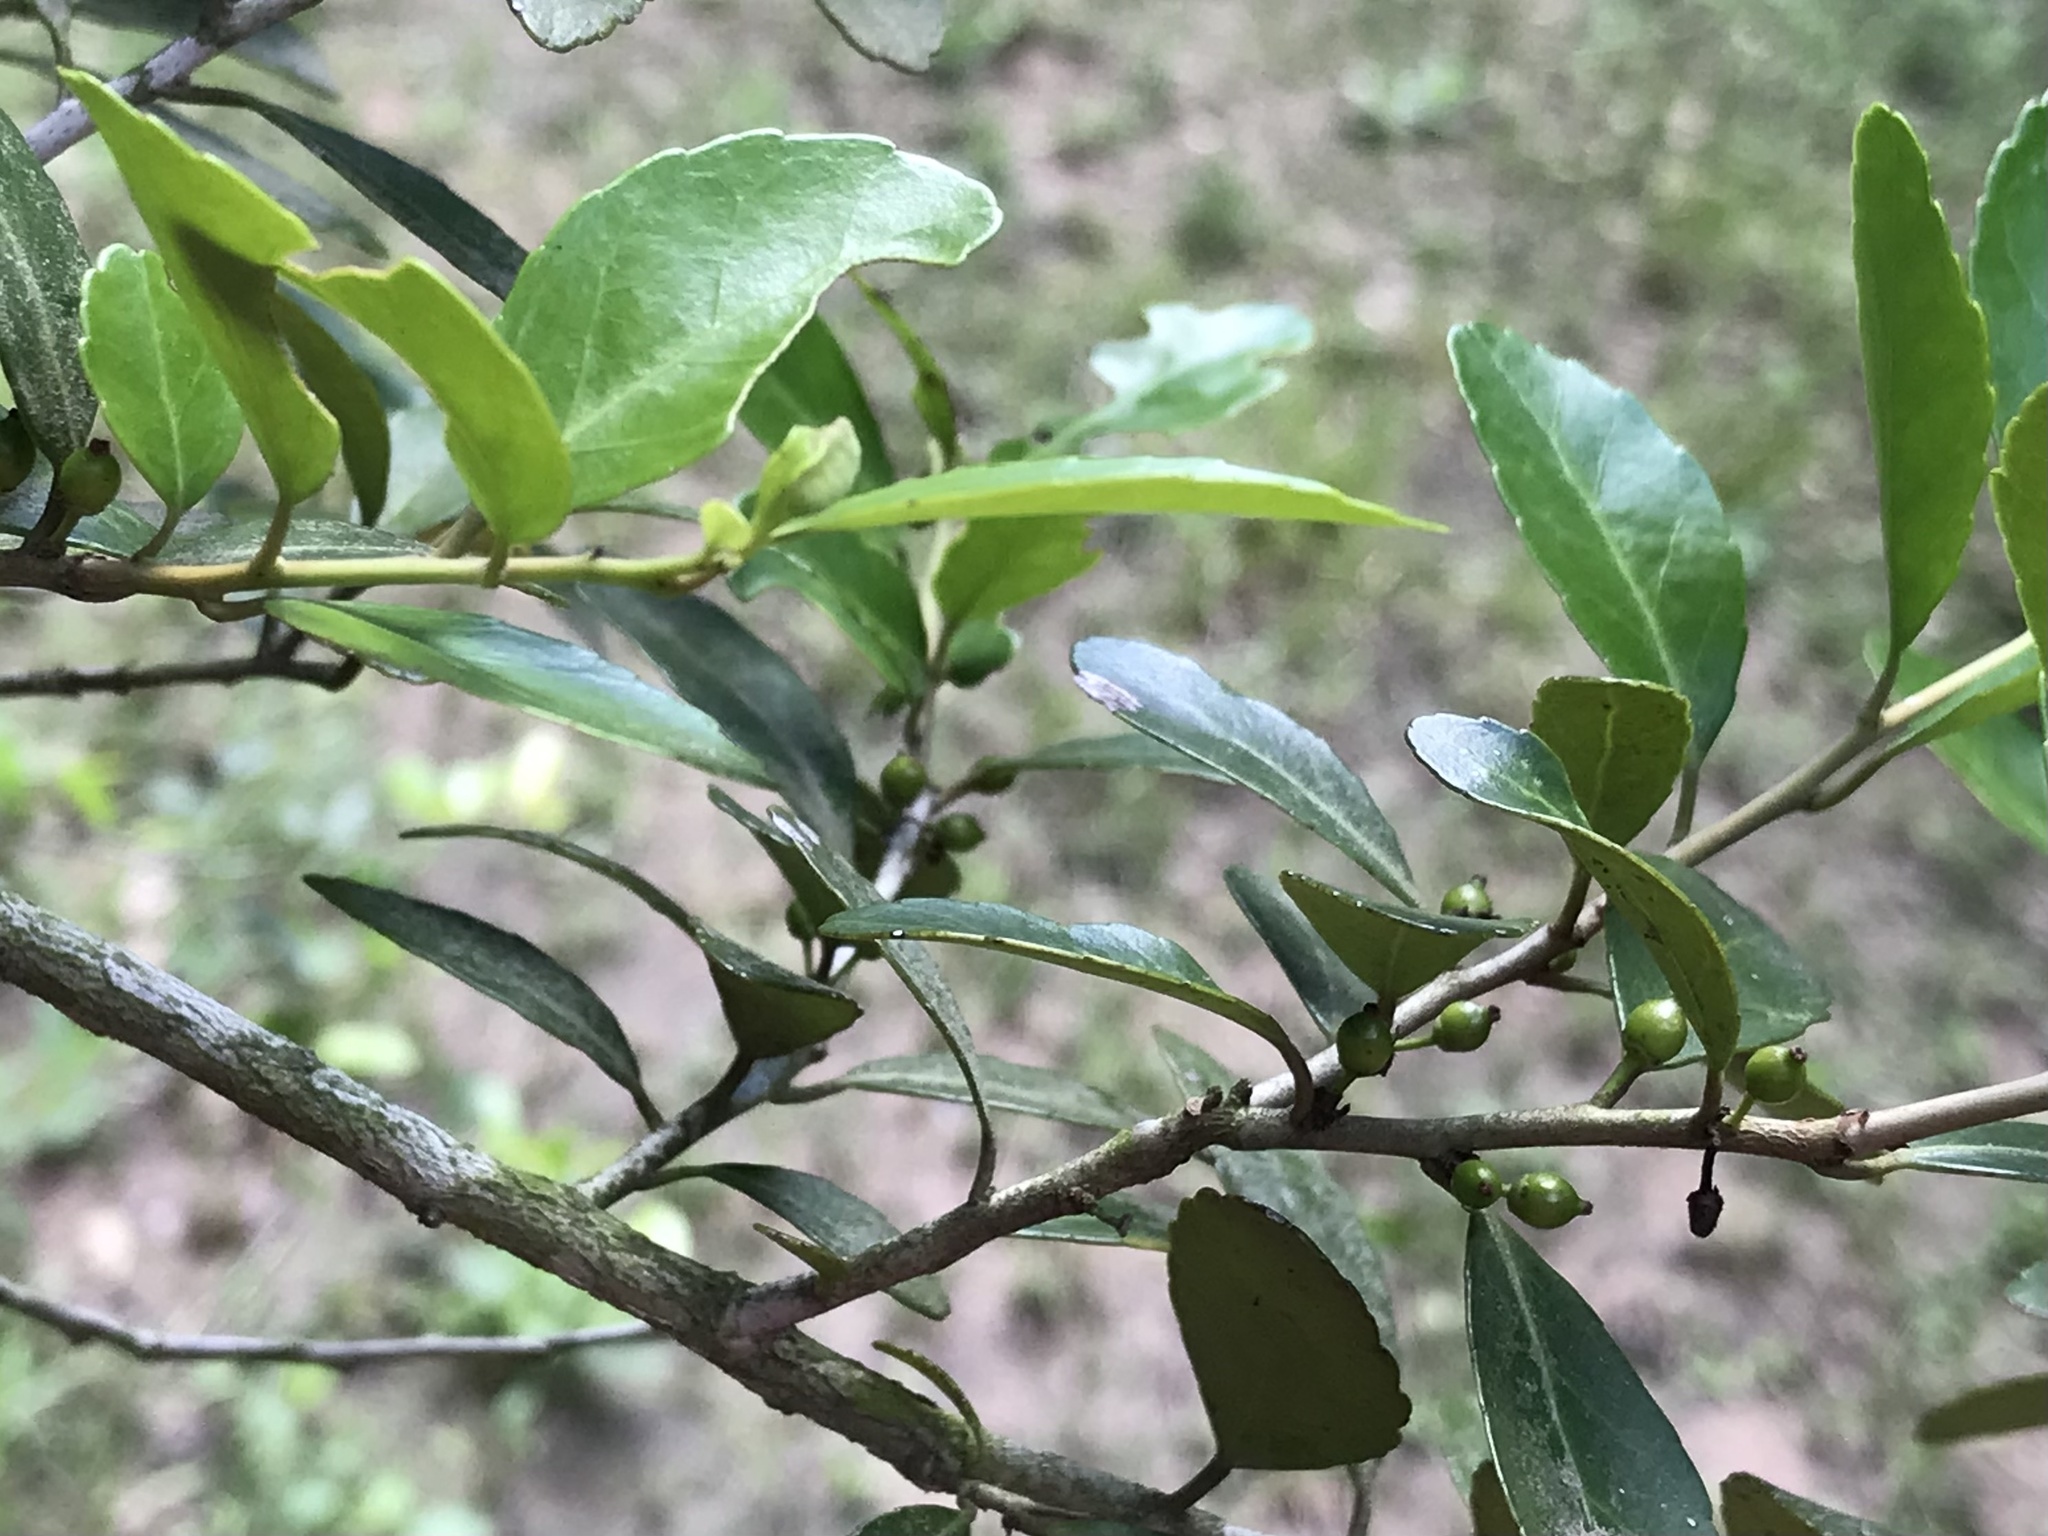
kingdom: Plantae
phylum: Tracheophyta
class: Magnoliopsida
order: Aquifoliales
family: Aquifoliaceae
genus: Ilex
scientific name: Ilex vomitoria
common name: Yaupon holly
